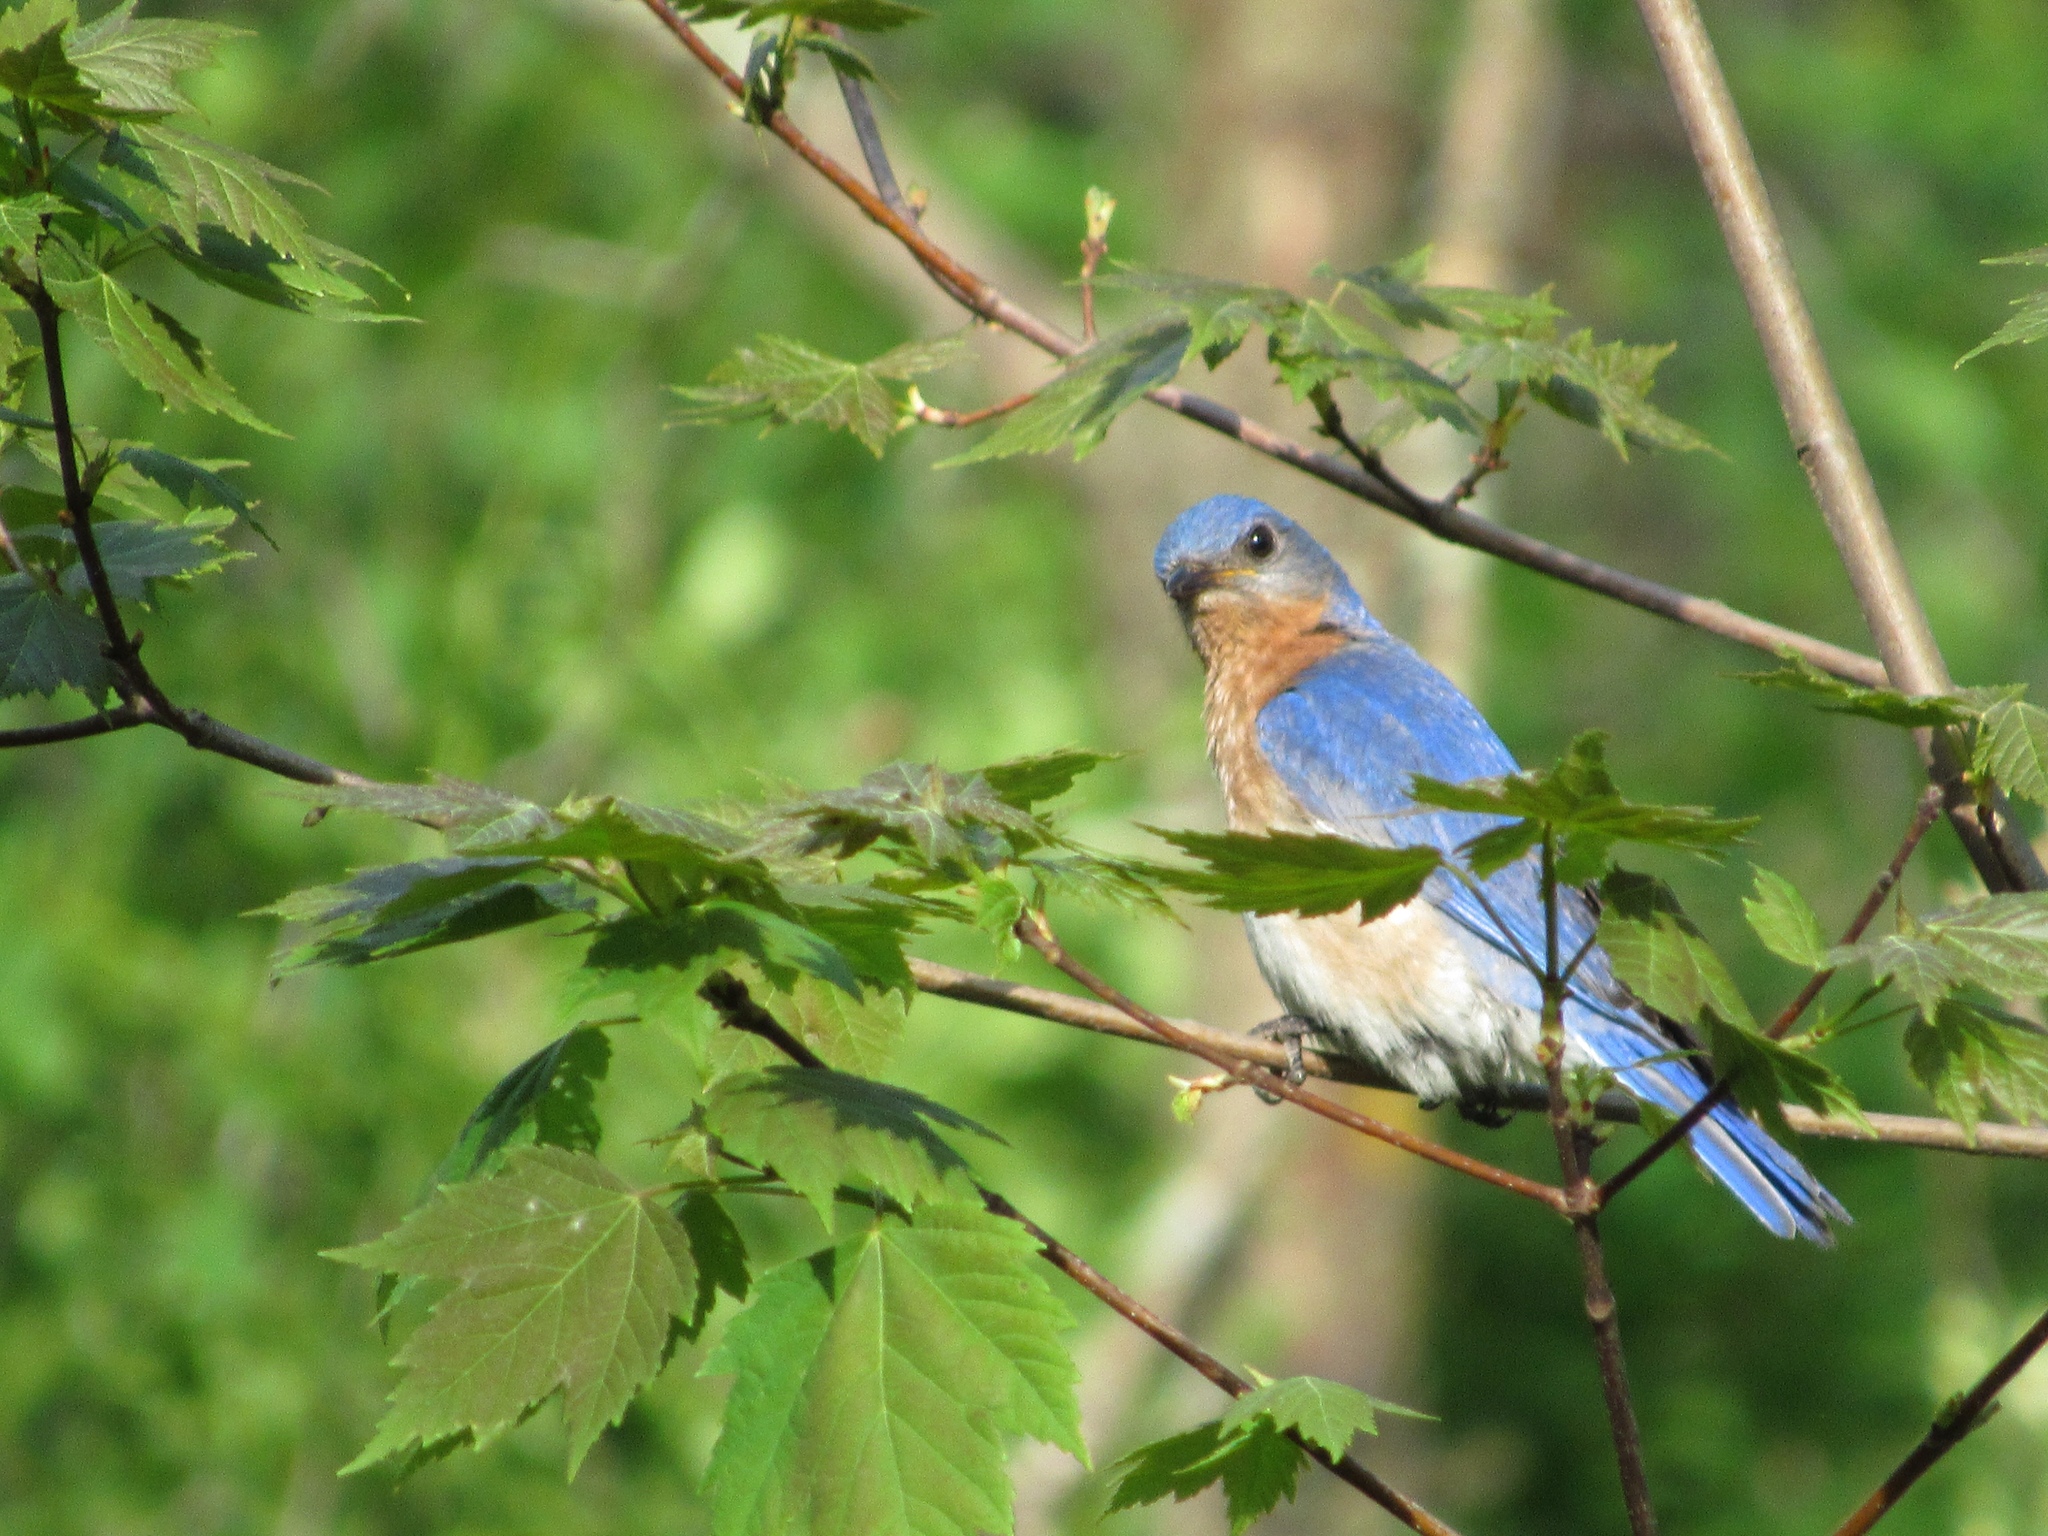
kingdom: Animalia
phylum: Chordata
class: Aves
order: Passeriformes
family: Turdidae
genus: Sialia
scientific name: Sialia sialis
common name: Eastern bluebird
